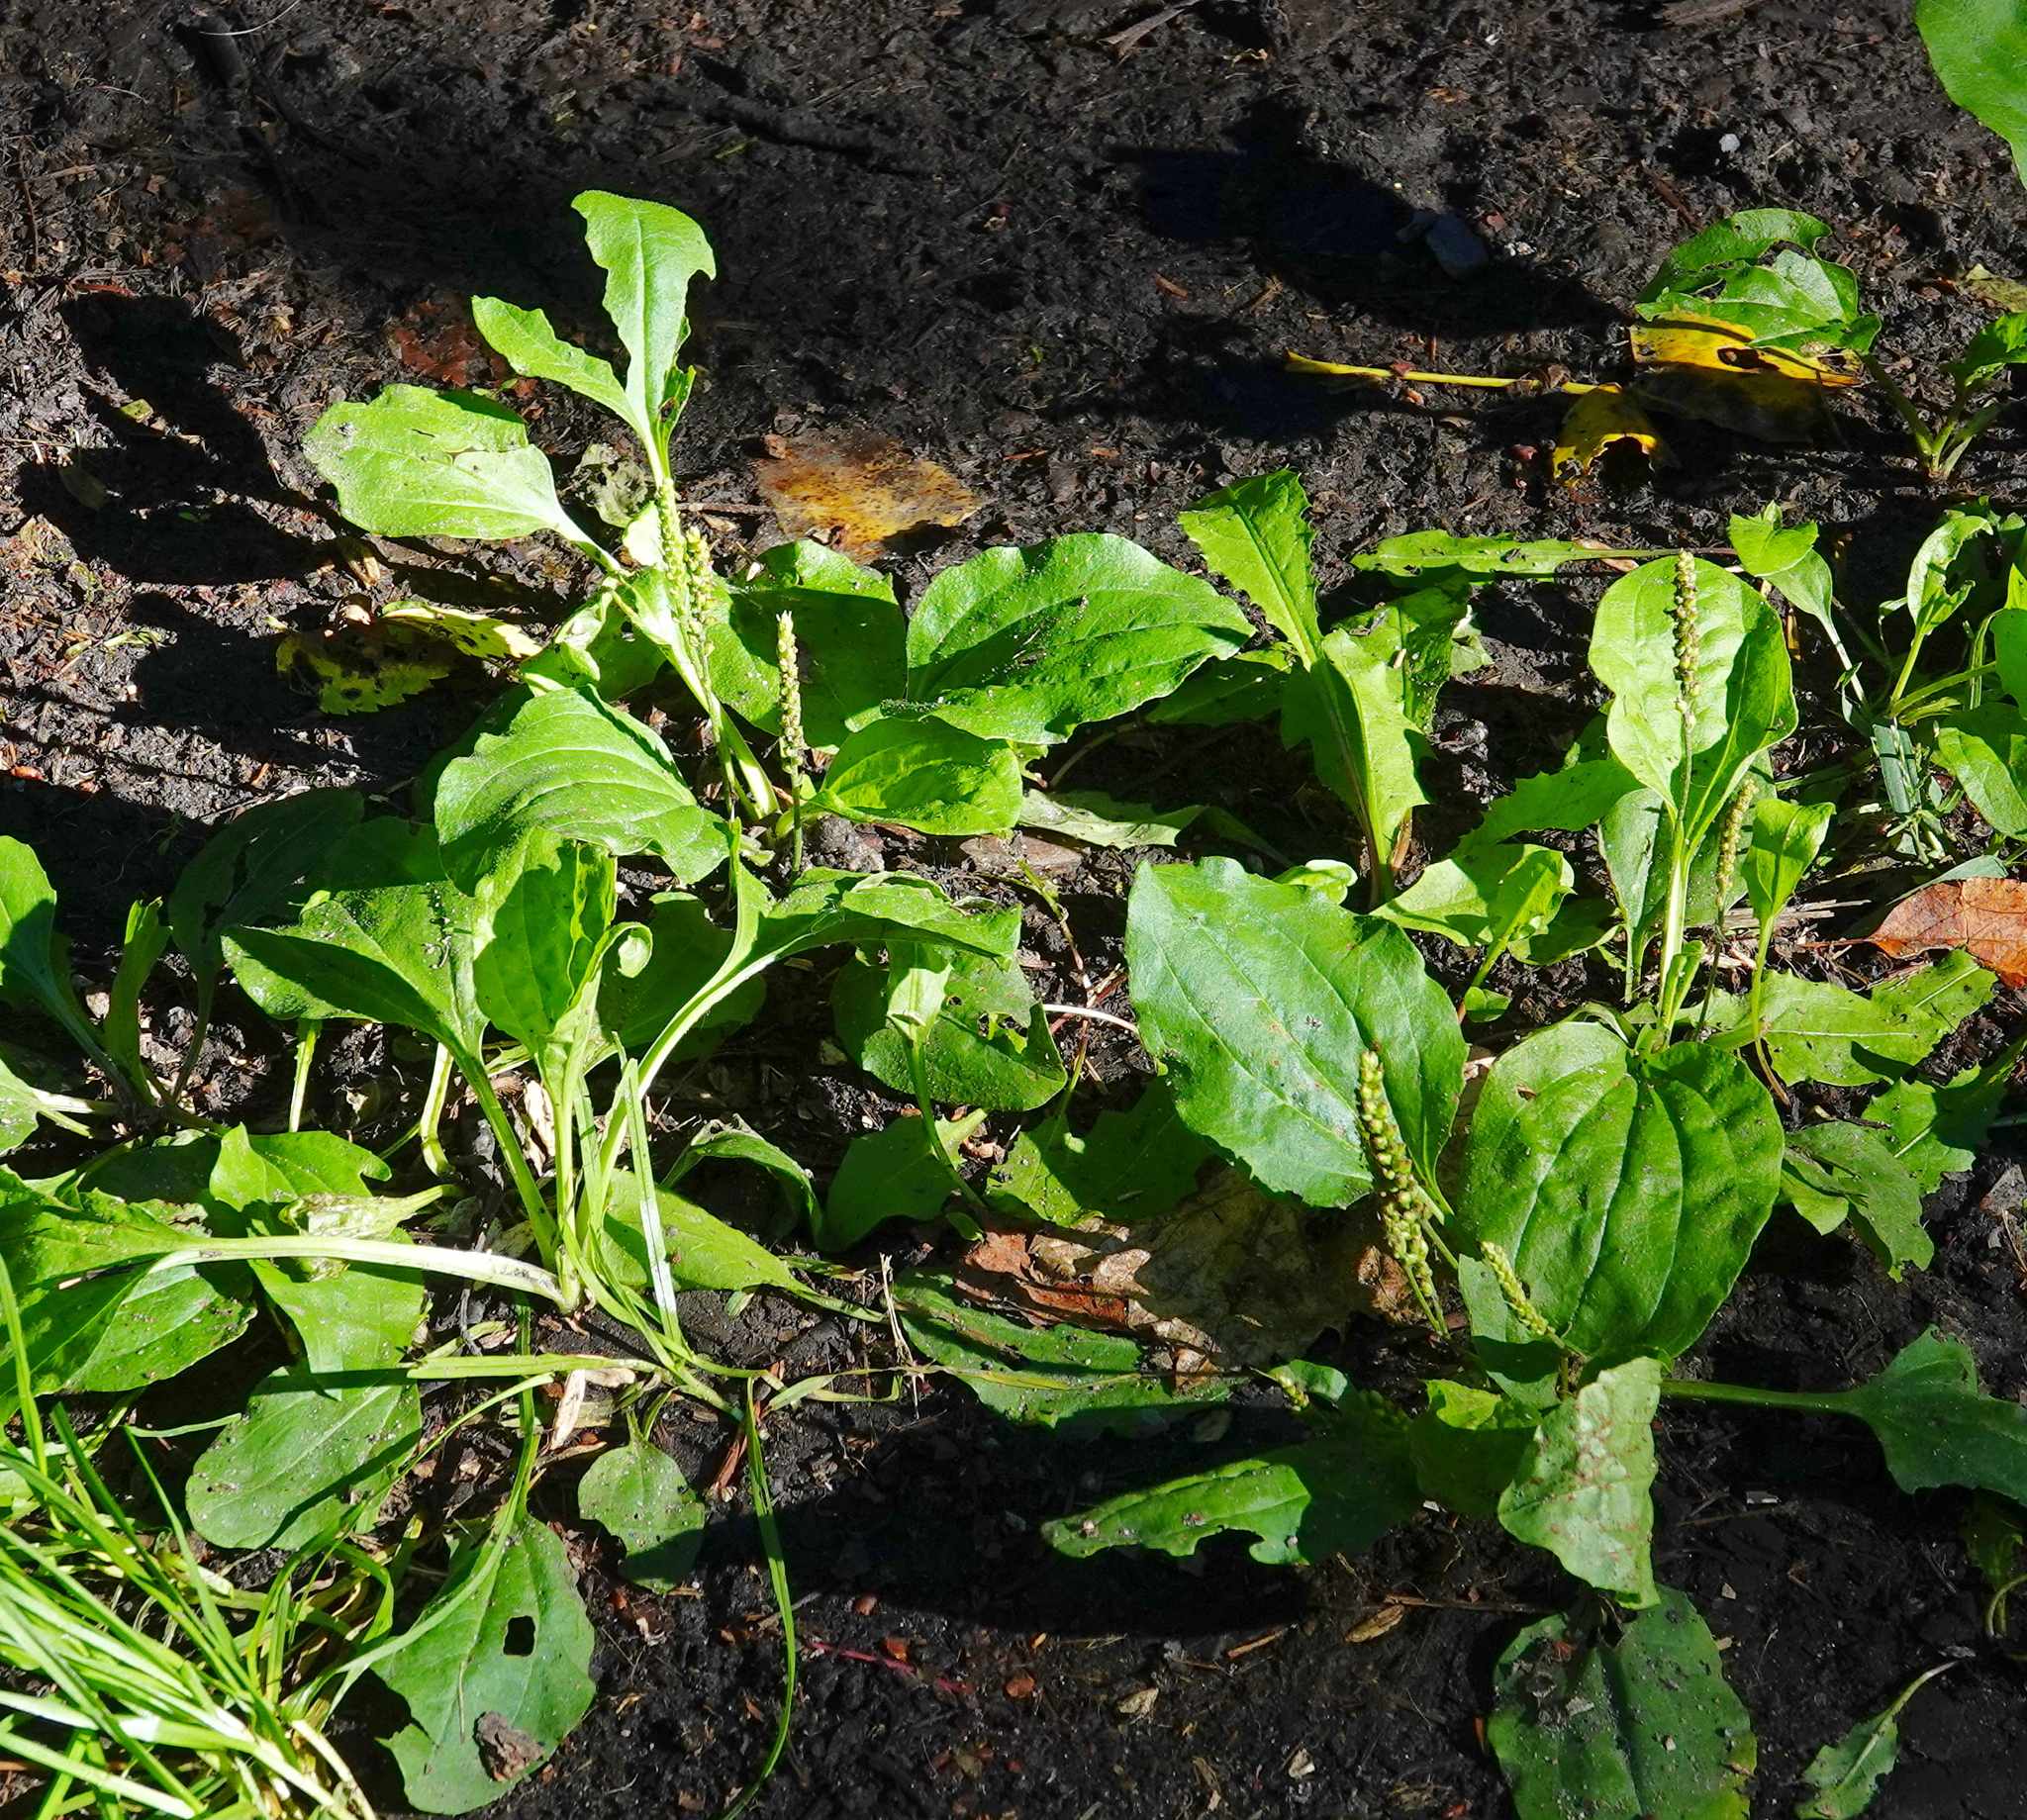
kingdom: Plantae
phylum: Tracheophyta
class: Magnoliopsida
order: Lamiales
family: Plantaginaceae
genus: Plantago
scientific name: Plantago major
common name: Common plantain
